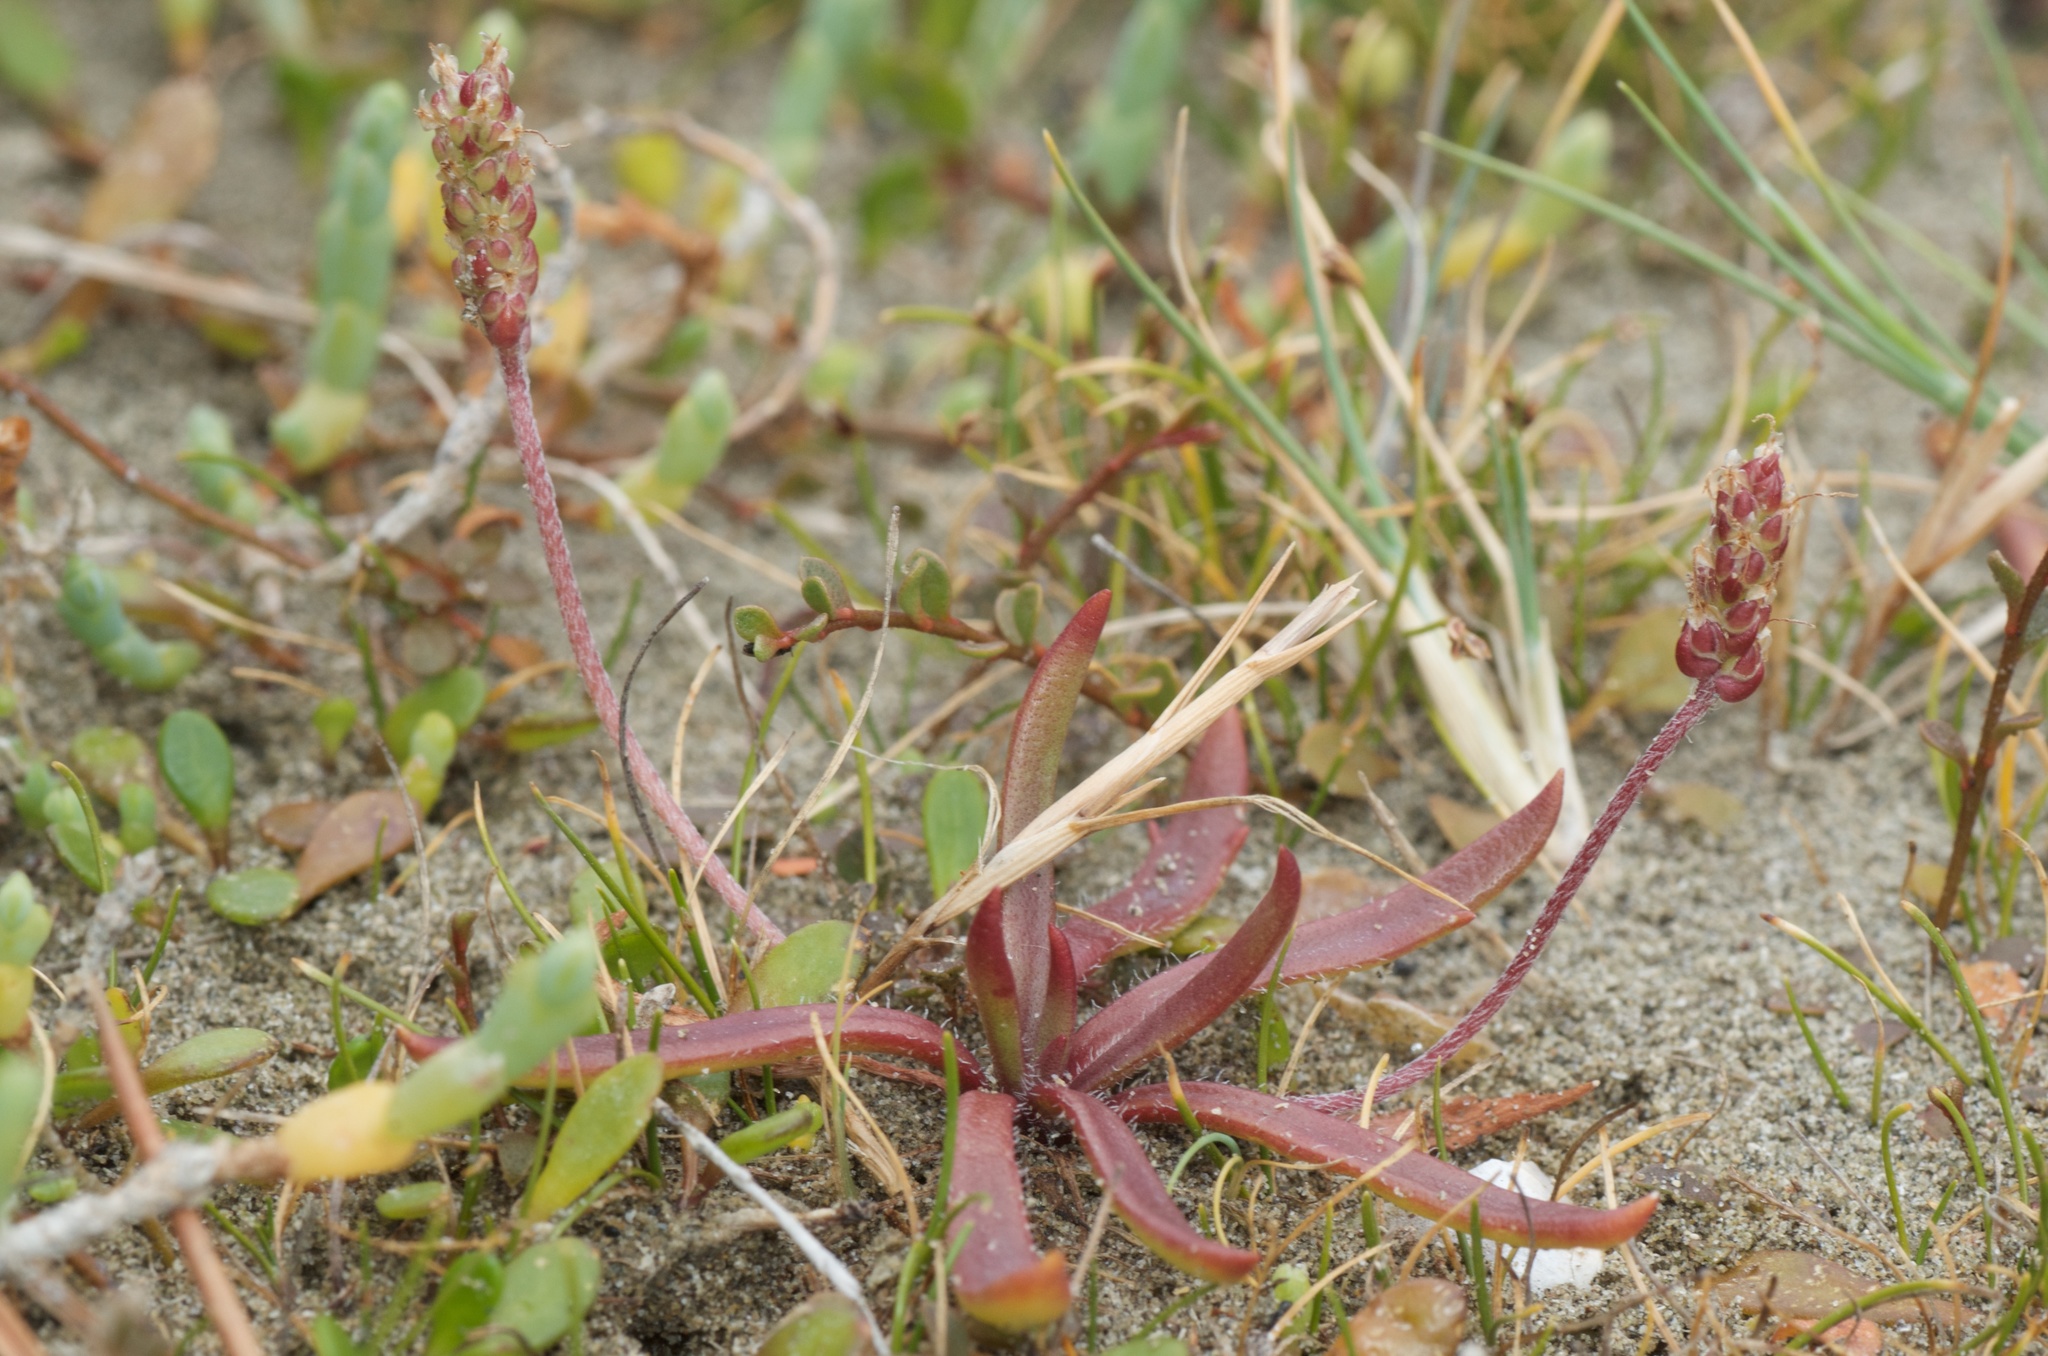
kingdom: Plantae
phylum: Tracheophyta
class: Magnoliopsida
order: Lamiales
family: Plantaginaceae
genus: Plantago
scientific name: Plantago coronopus
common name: Buck's-horn plantain
